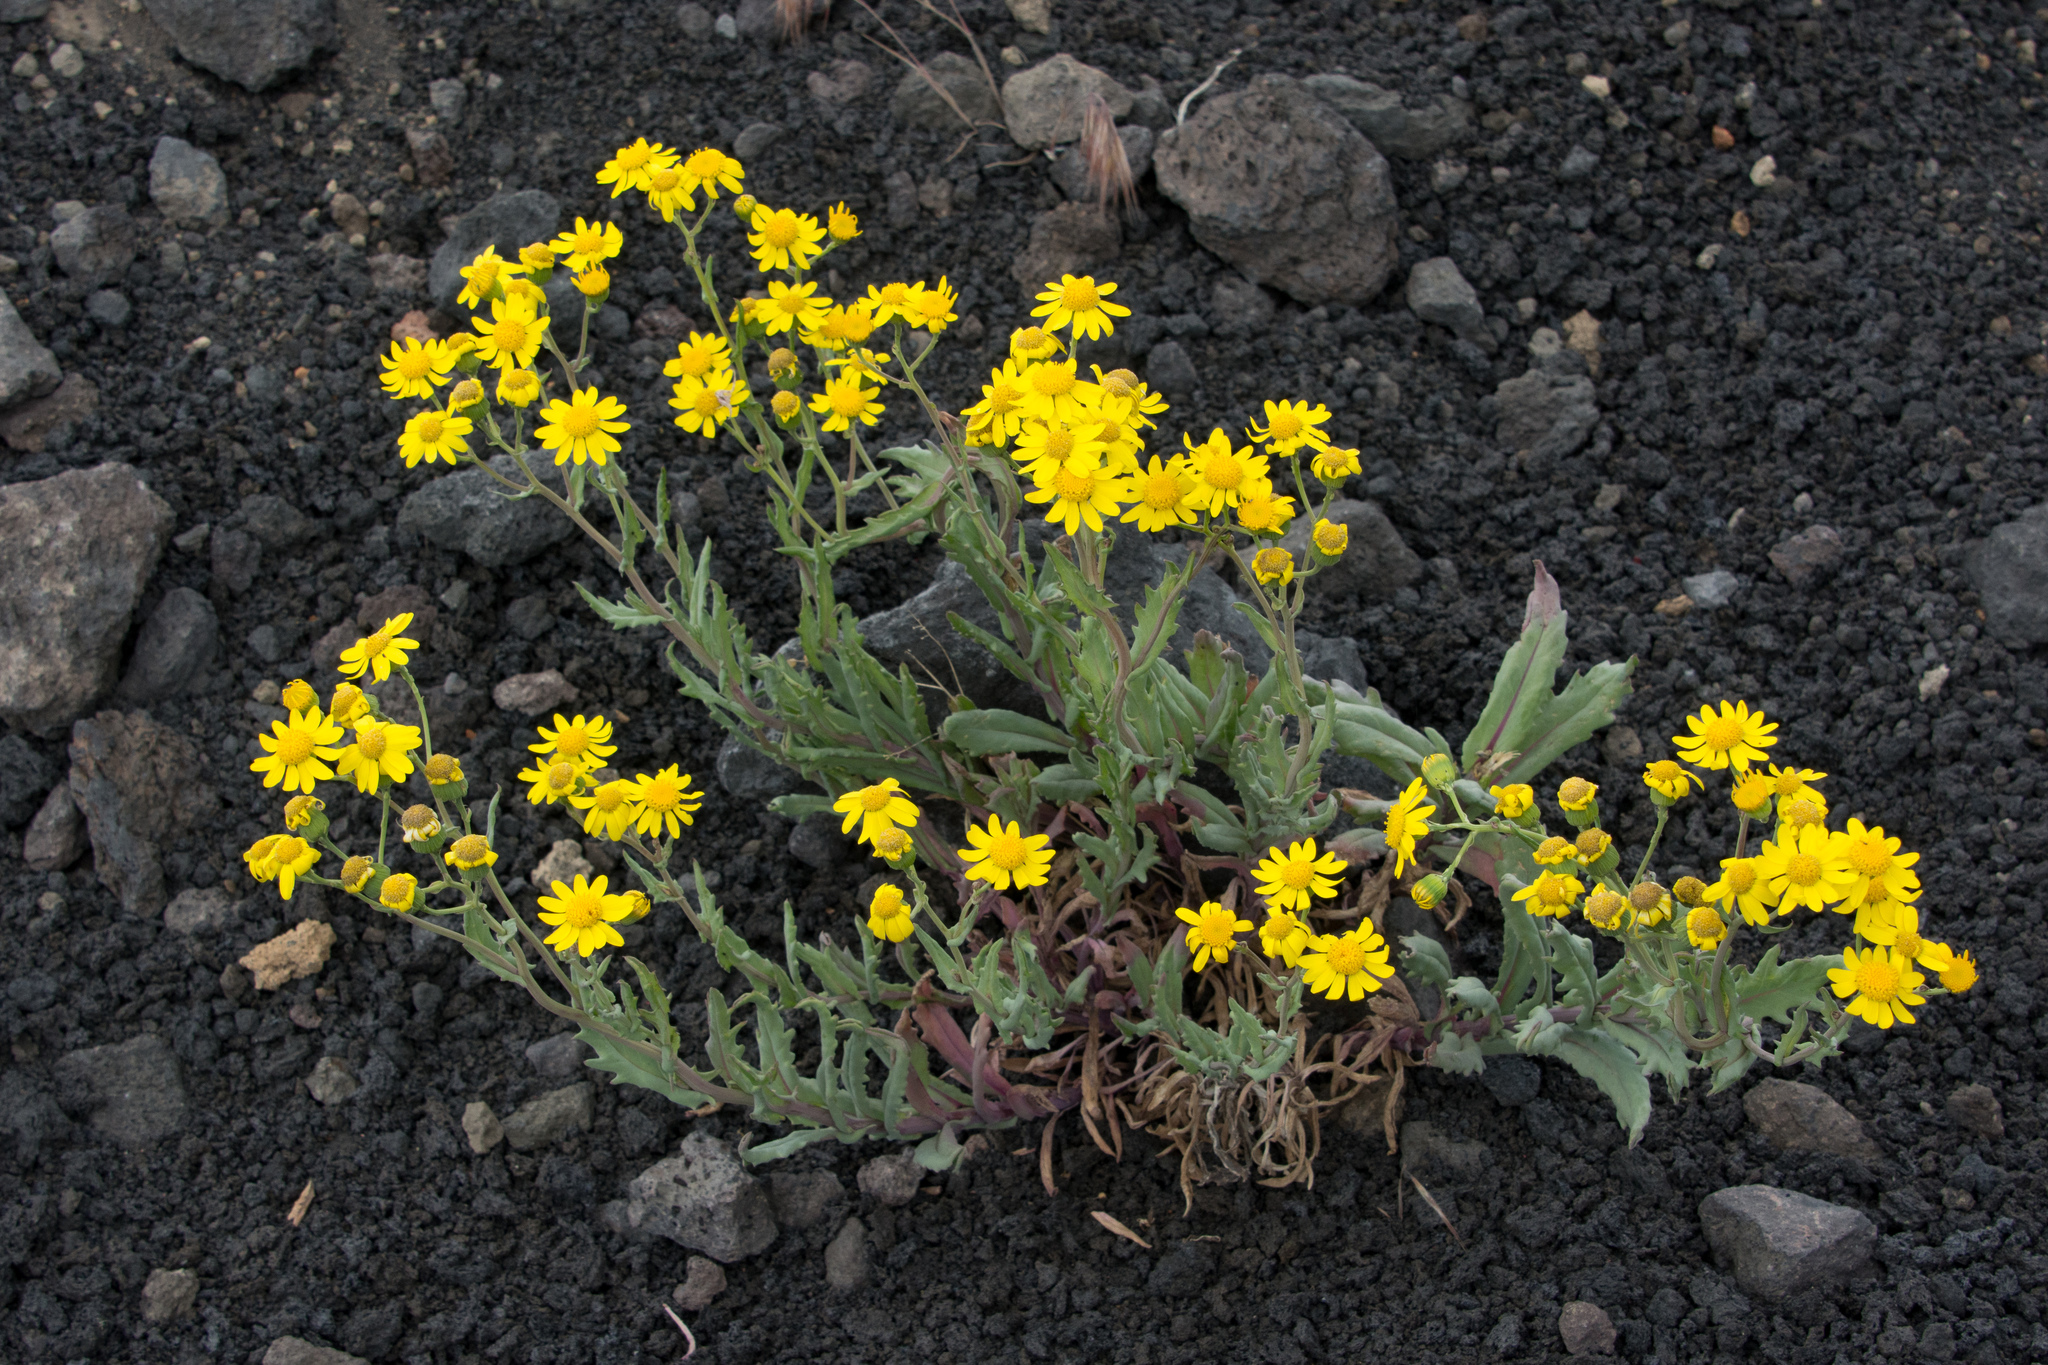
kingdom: Plantae
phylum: Tracheophyta
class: Magnoliopsida
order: Asterales
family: Asteraceae
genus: Senecio
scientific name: Senecio squalidus
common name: Oxford ragwort
